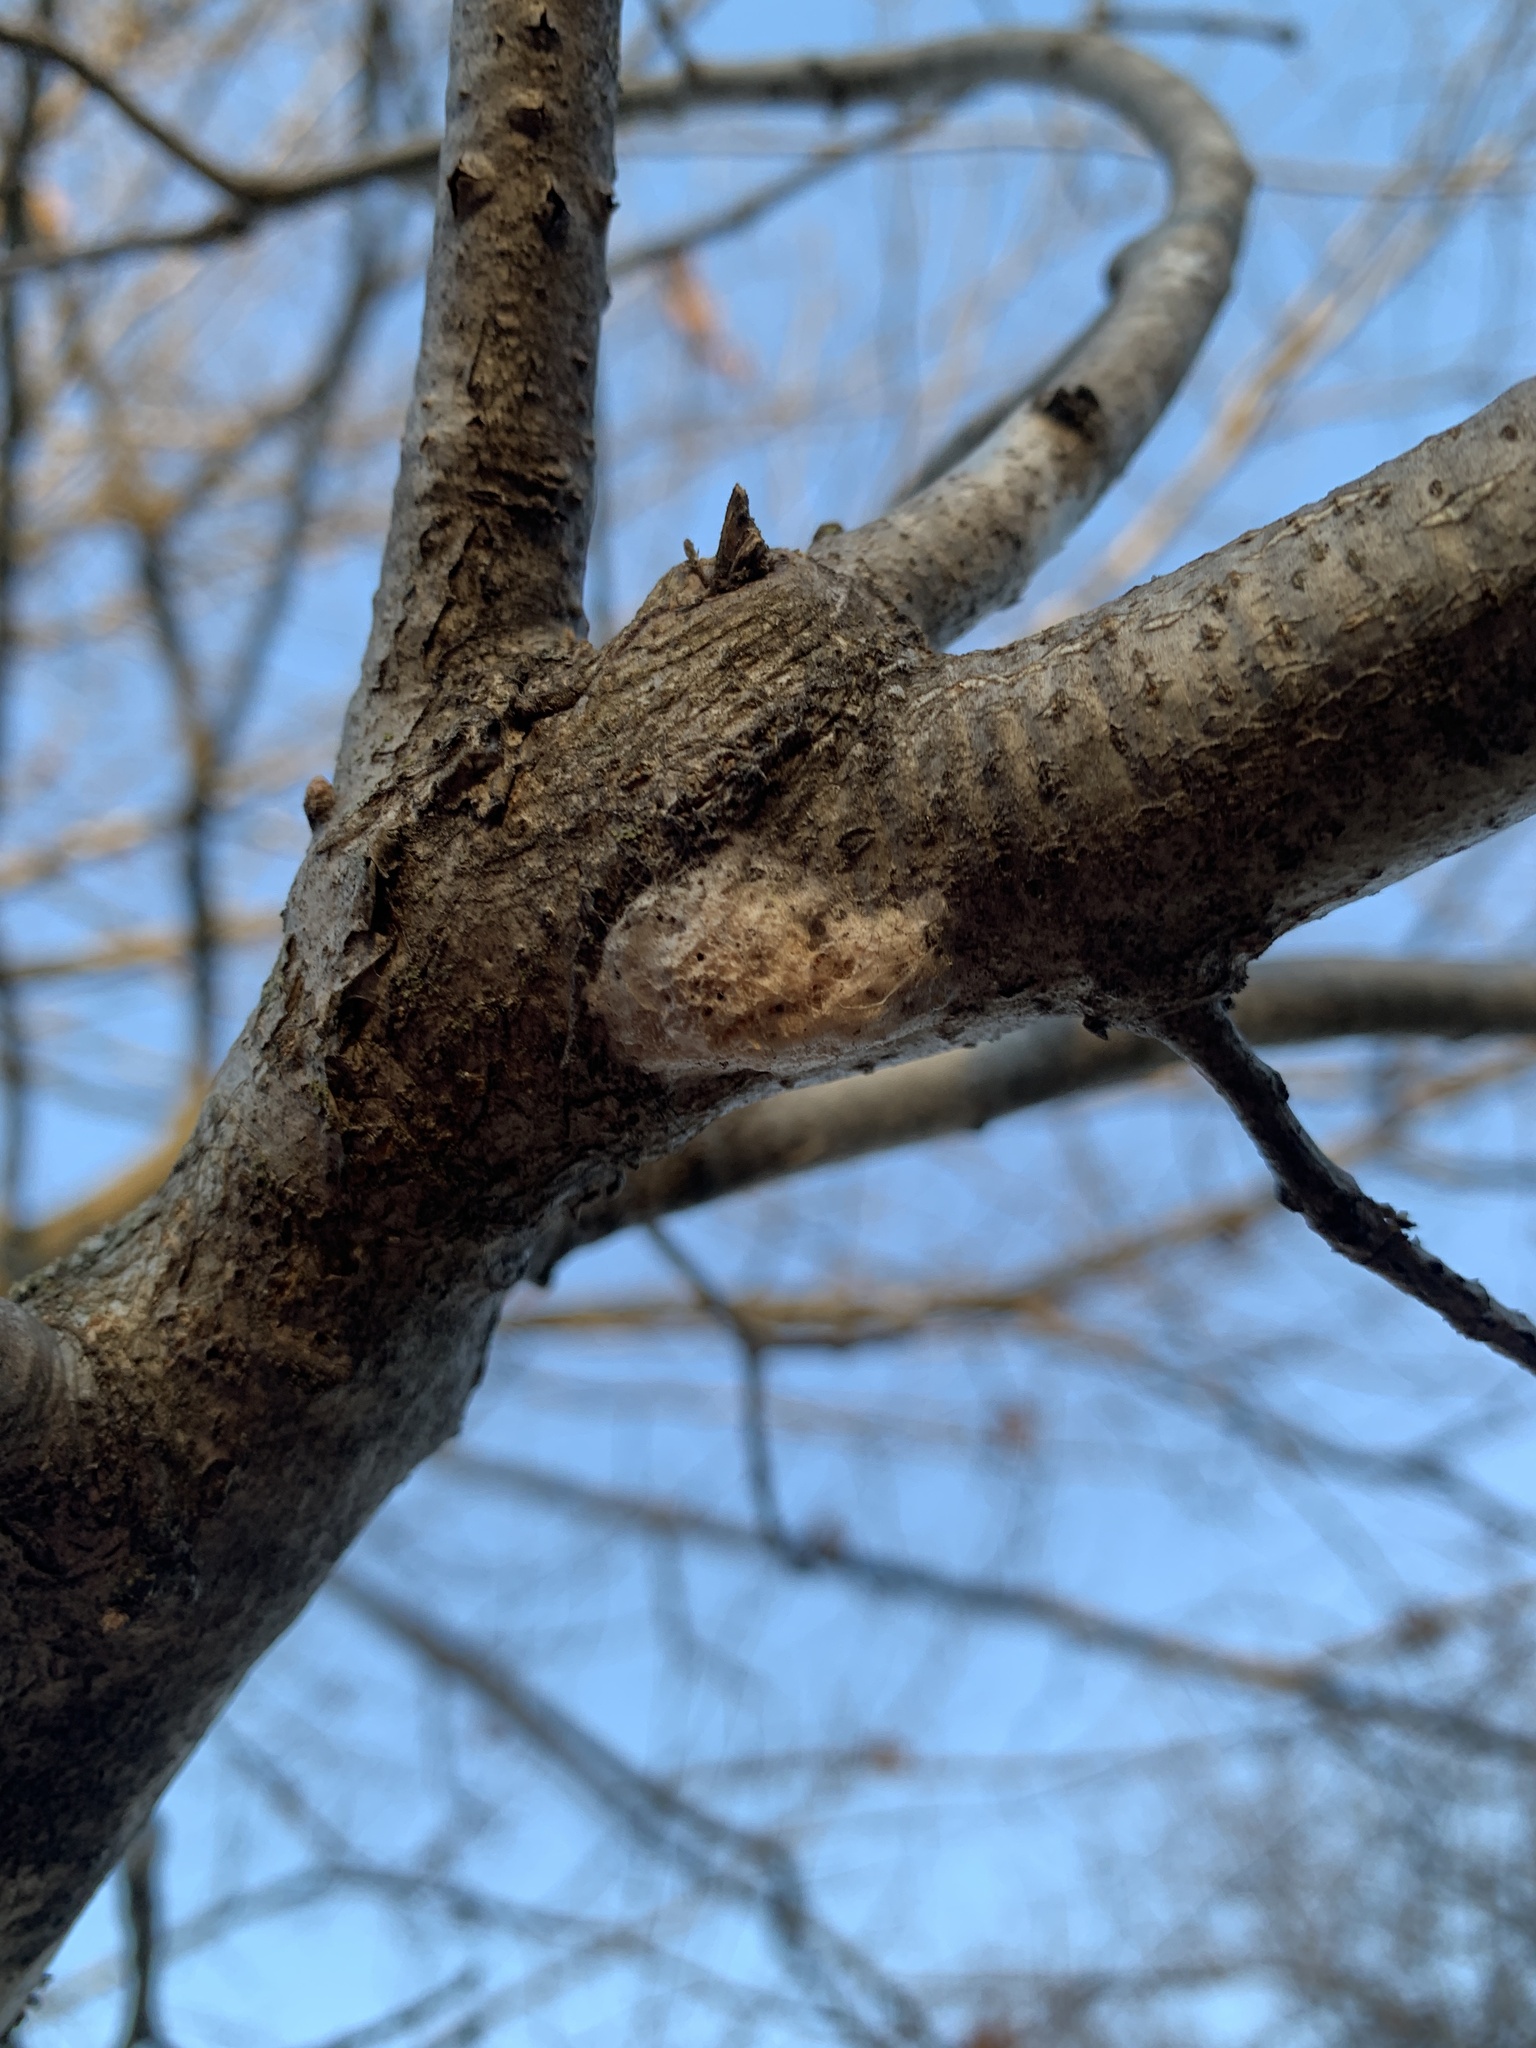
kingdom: Animalia
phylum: Arthropoda
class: Insecta
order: Lepidoptera
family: Erebidae
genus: Lymantria
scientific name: Lymantria dispar
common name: Gypsy moth
